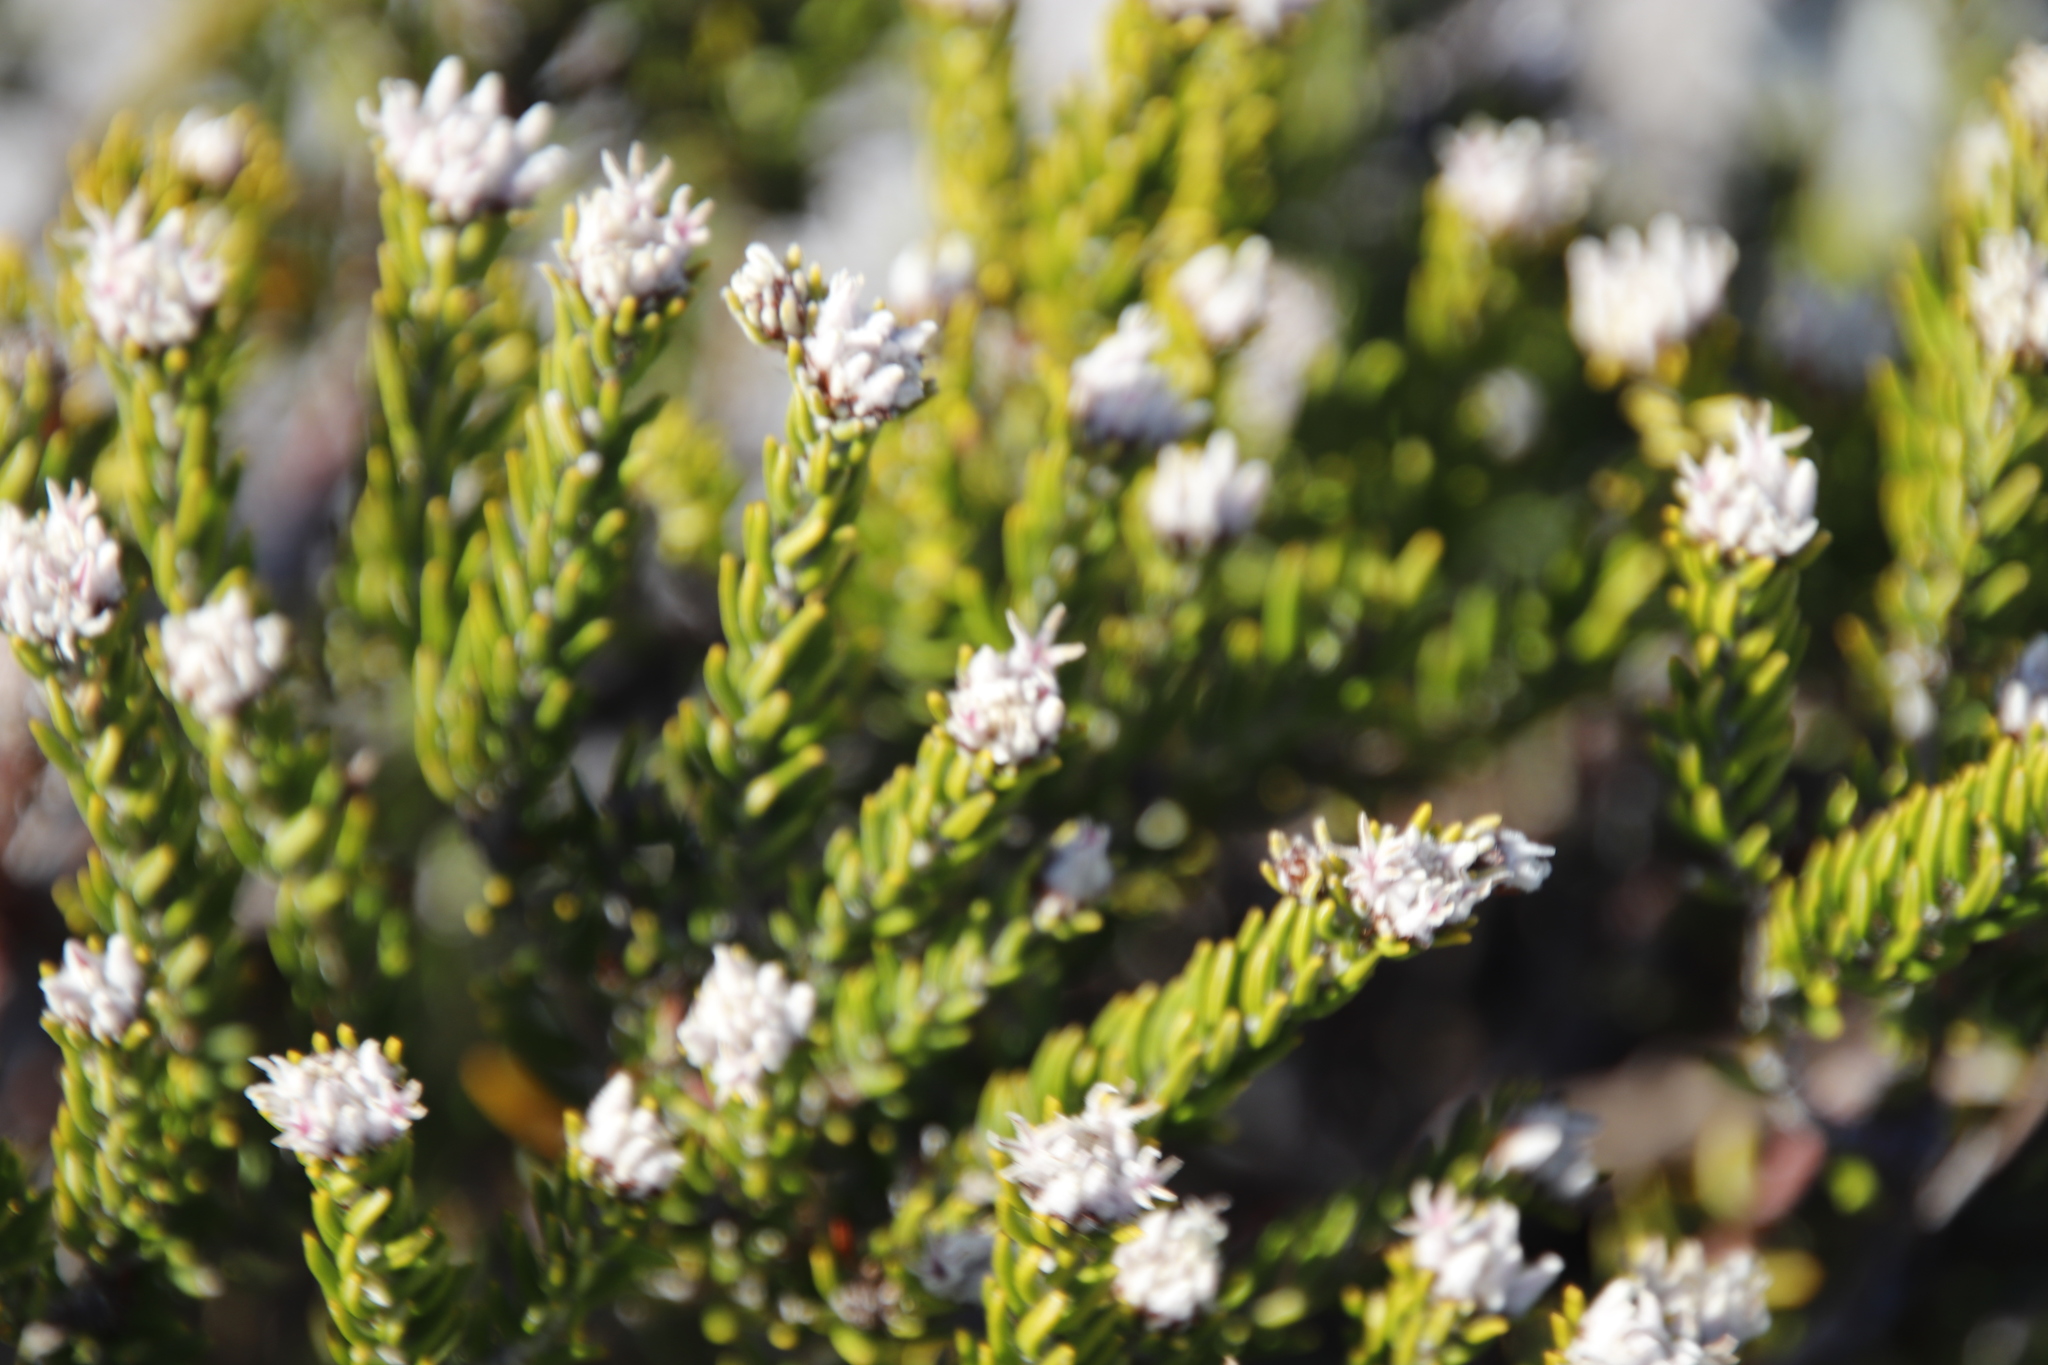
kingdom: Plantae
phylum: Tracheophyta
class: Magnoliopsida
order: Rosales
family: Rhamnaceae
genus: Trichocephalus
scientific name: Trichocephalus stipularis
